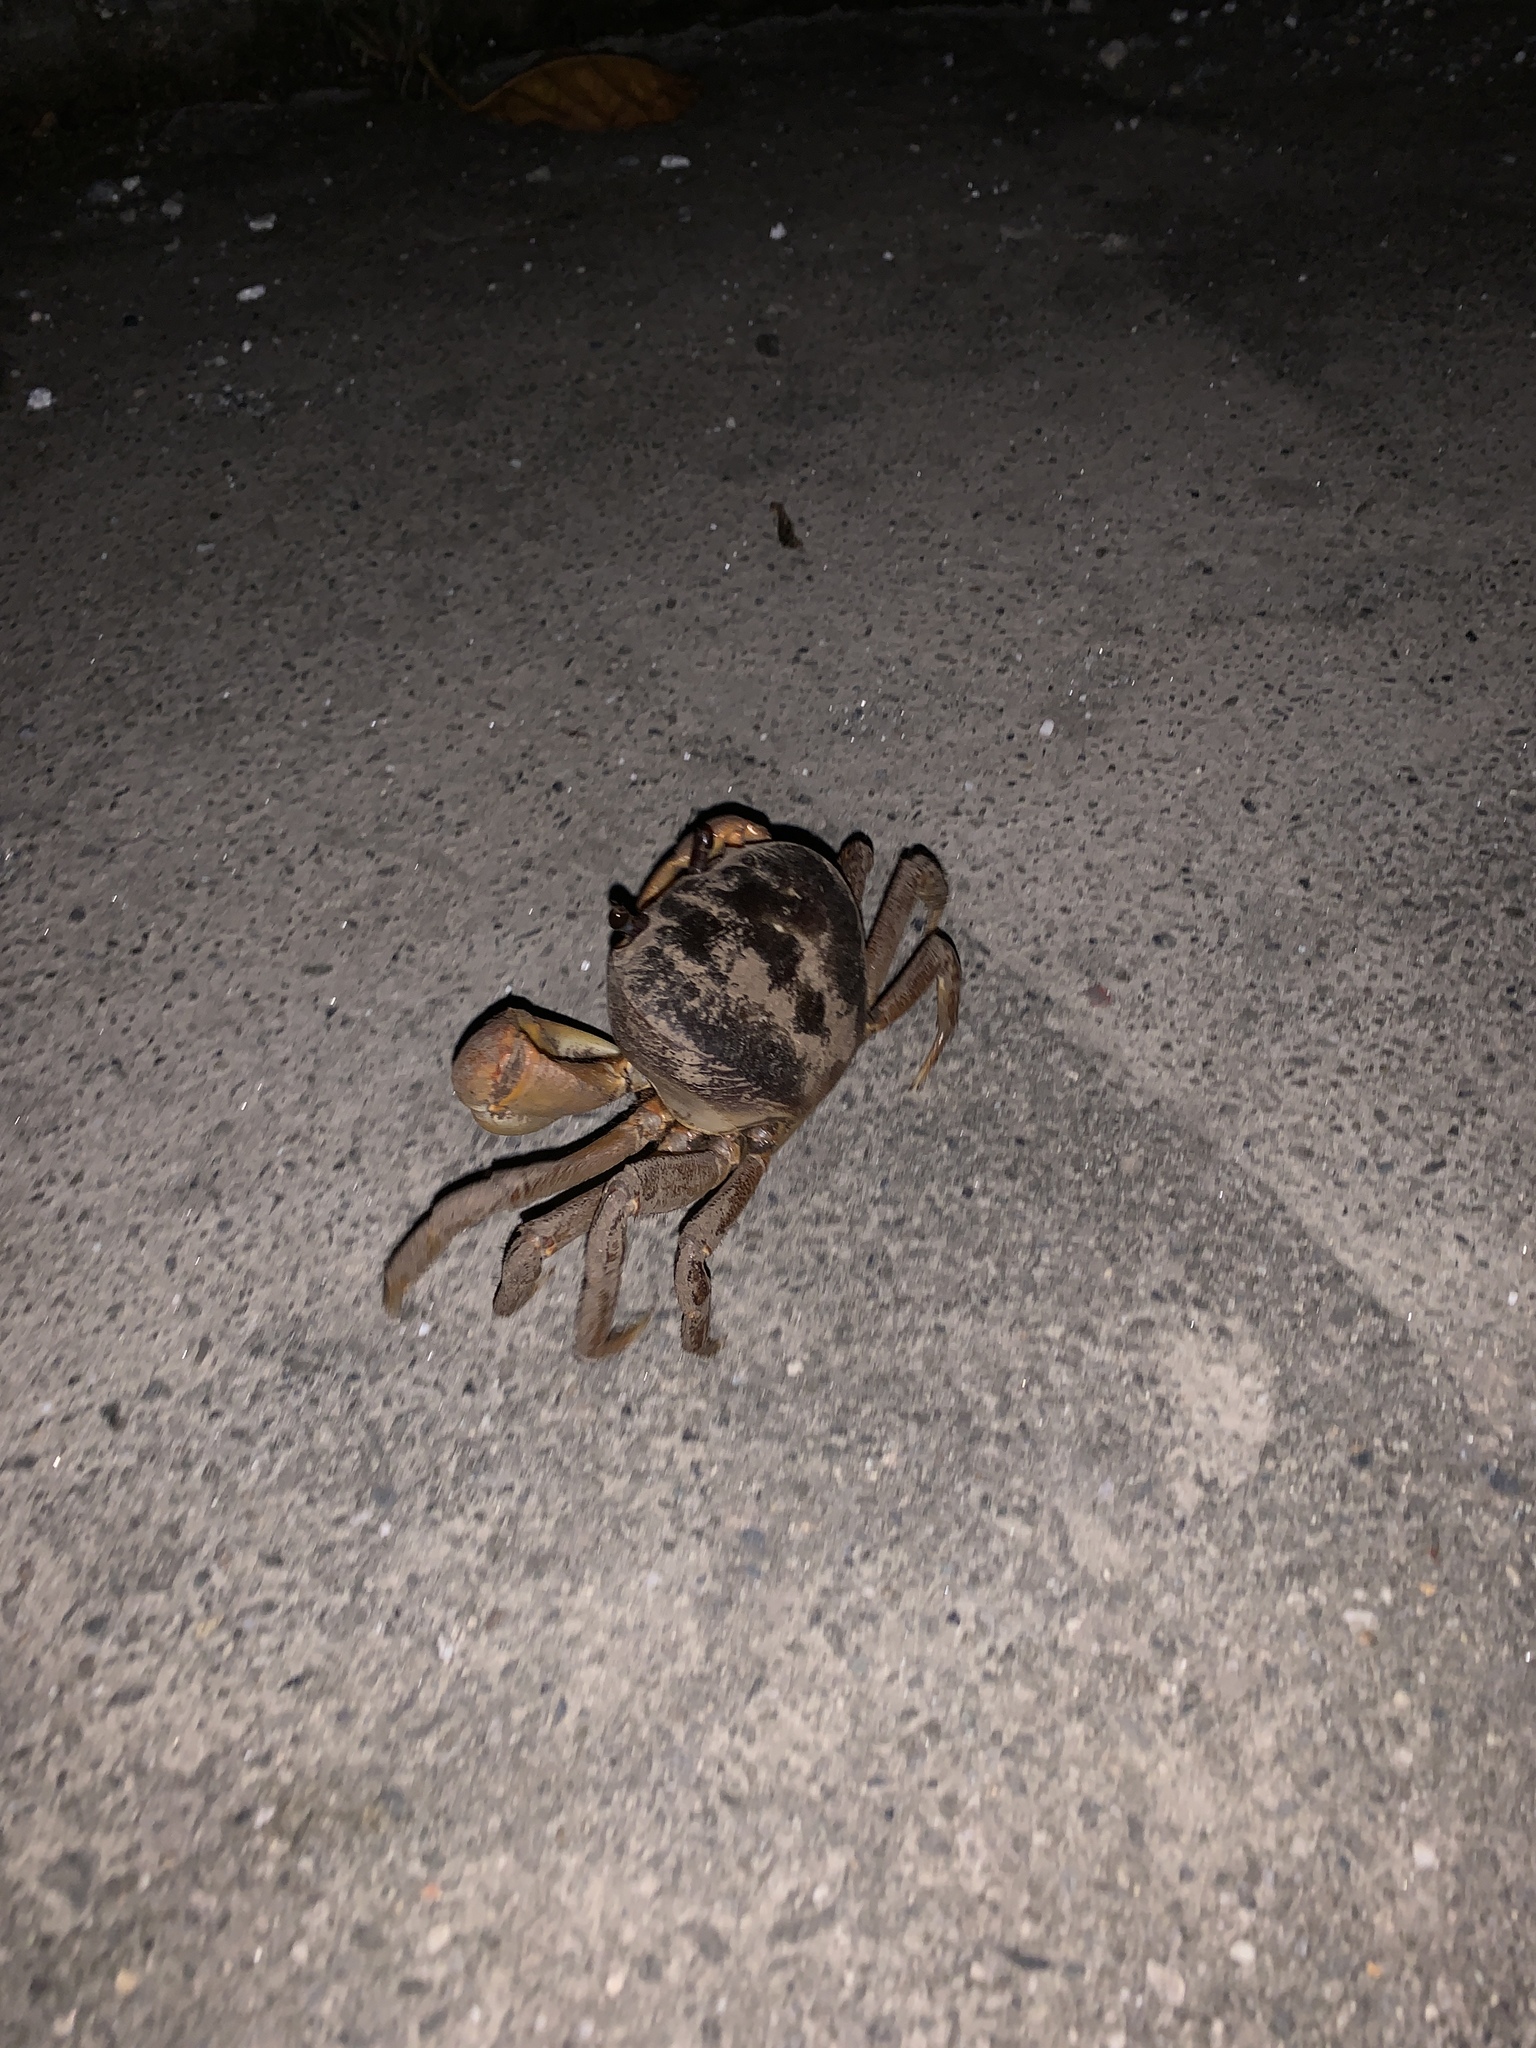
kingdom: Animalia
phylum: Arthropoda
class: Malacostraca
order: Decapoda
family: Gecarcinidae
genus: Tuerkayana
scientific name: Tuerkayana hirtipes
